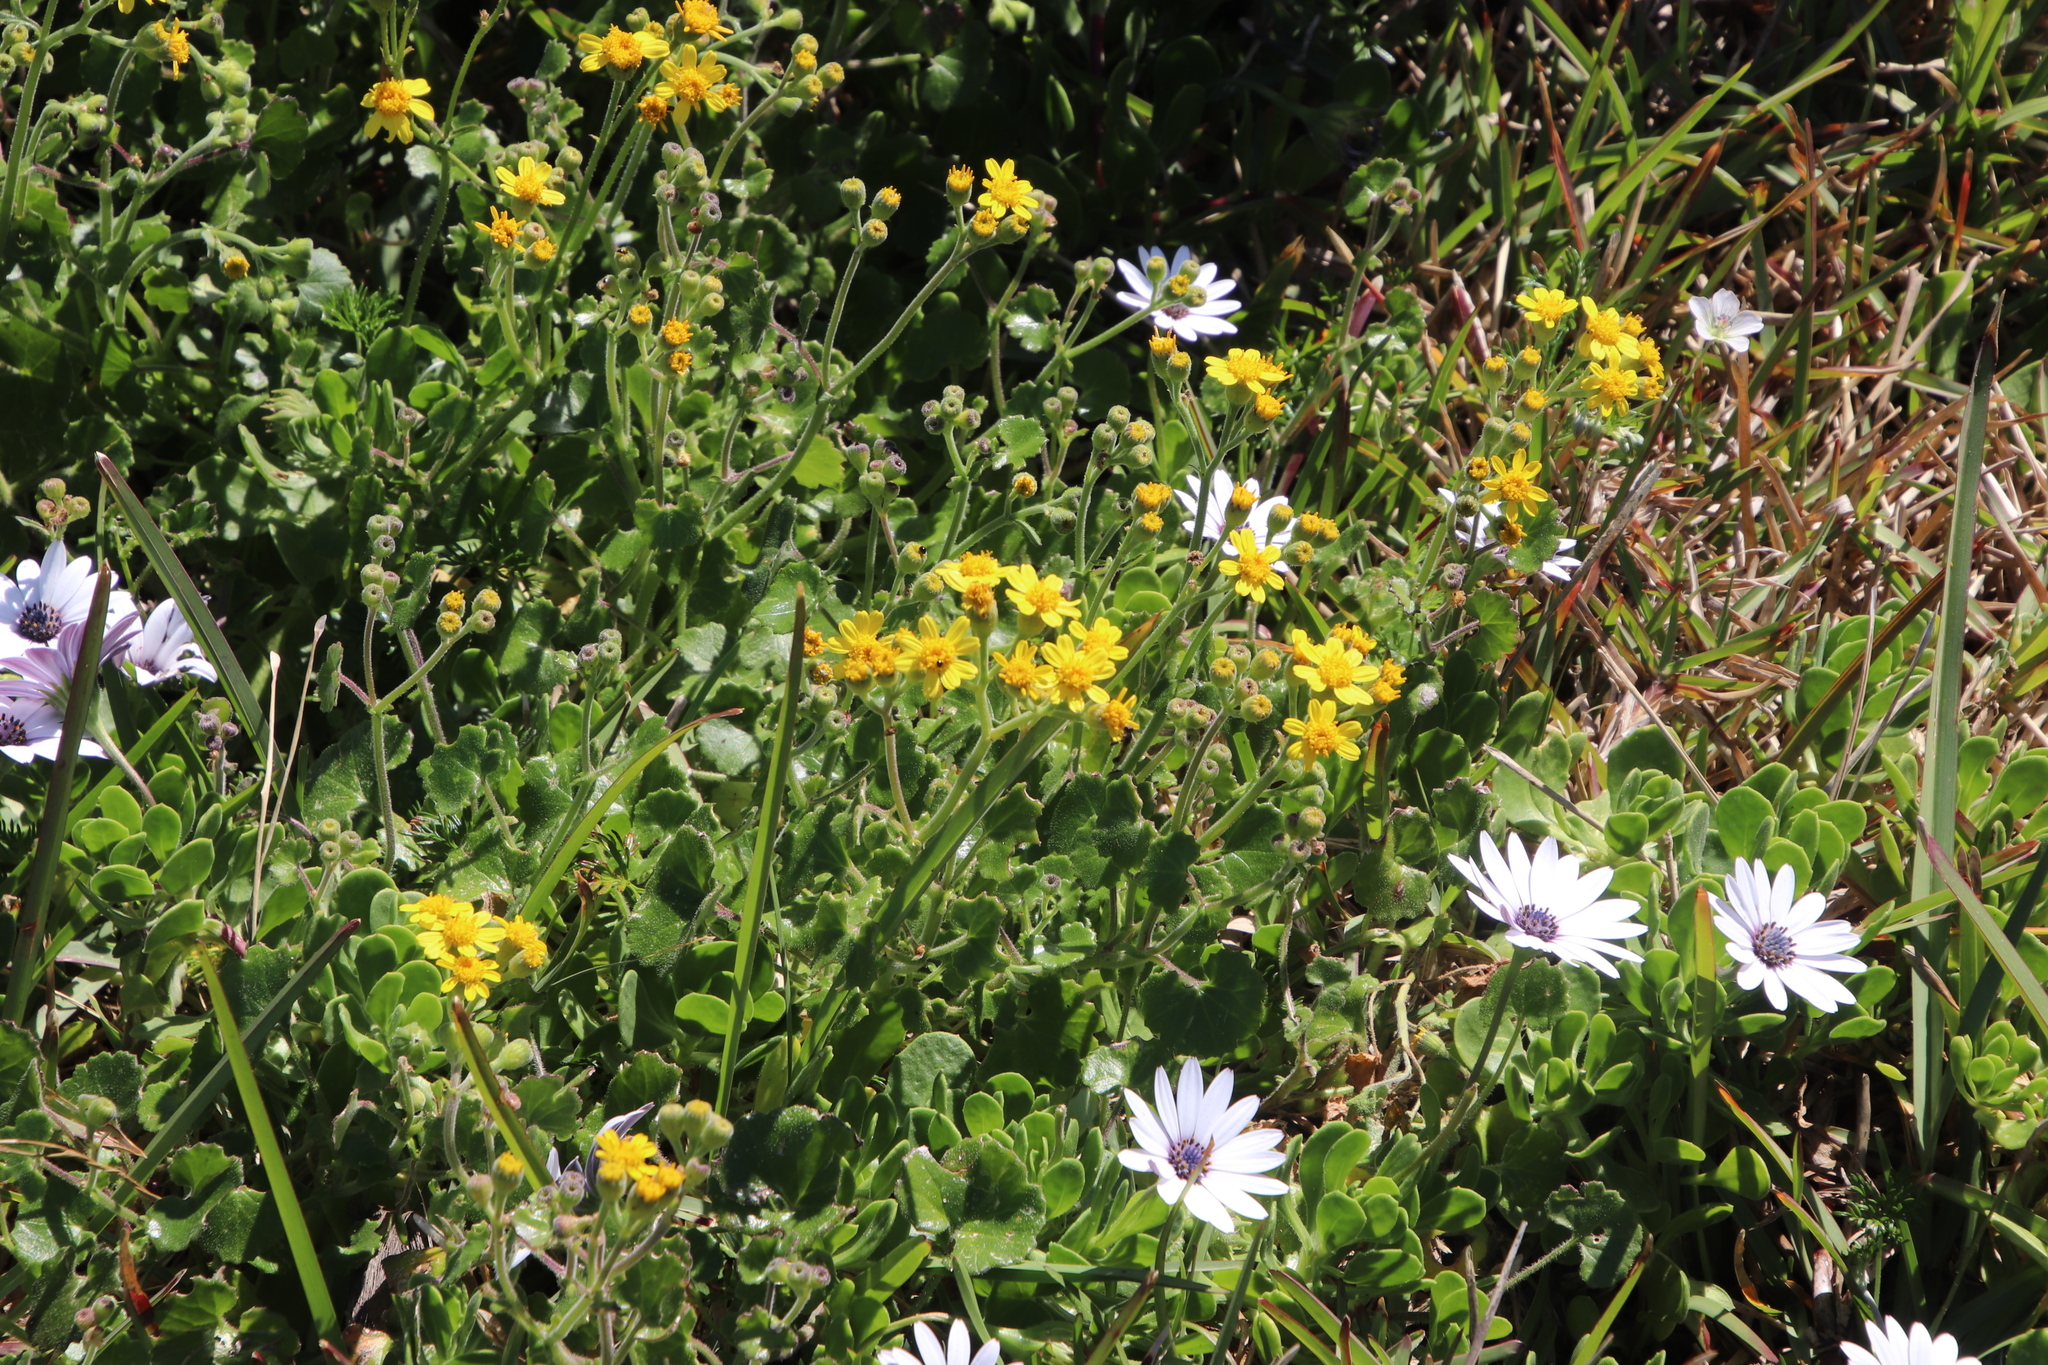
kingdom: Plantae
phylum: Tracheophyta
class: Magnoliopsida
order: Asterales
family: Asteraceae
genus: Cineraria
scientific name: Cineraria geifolia
